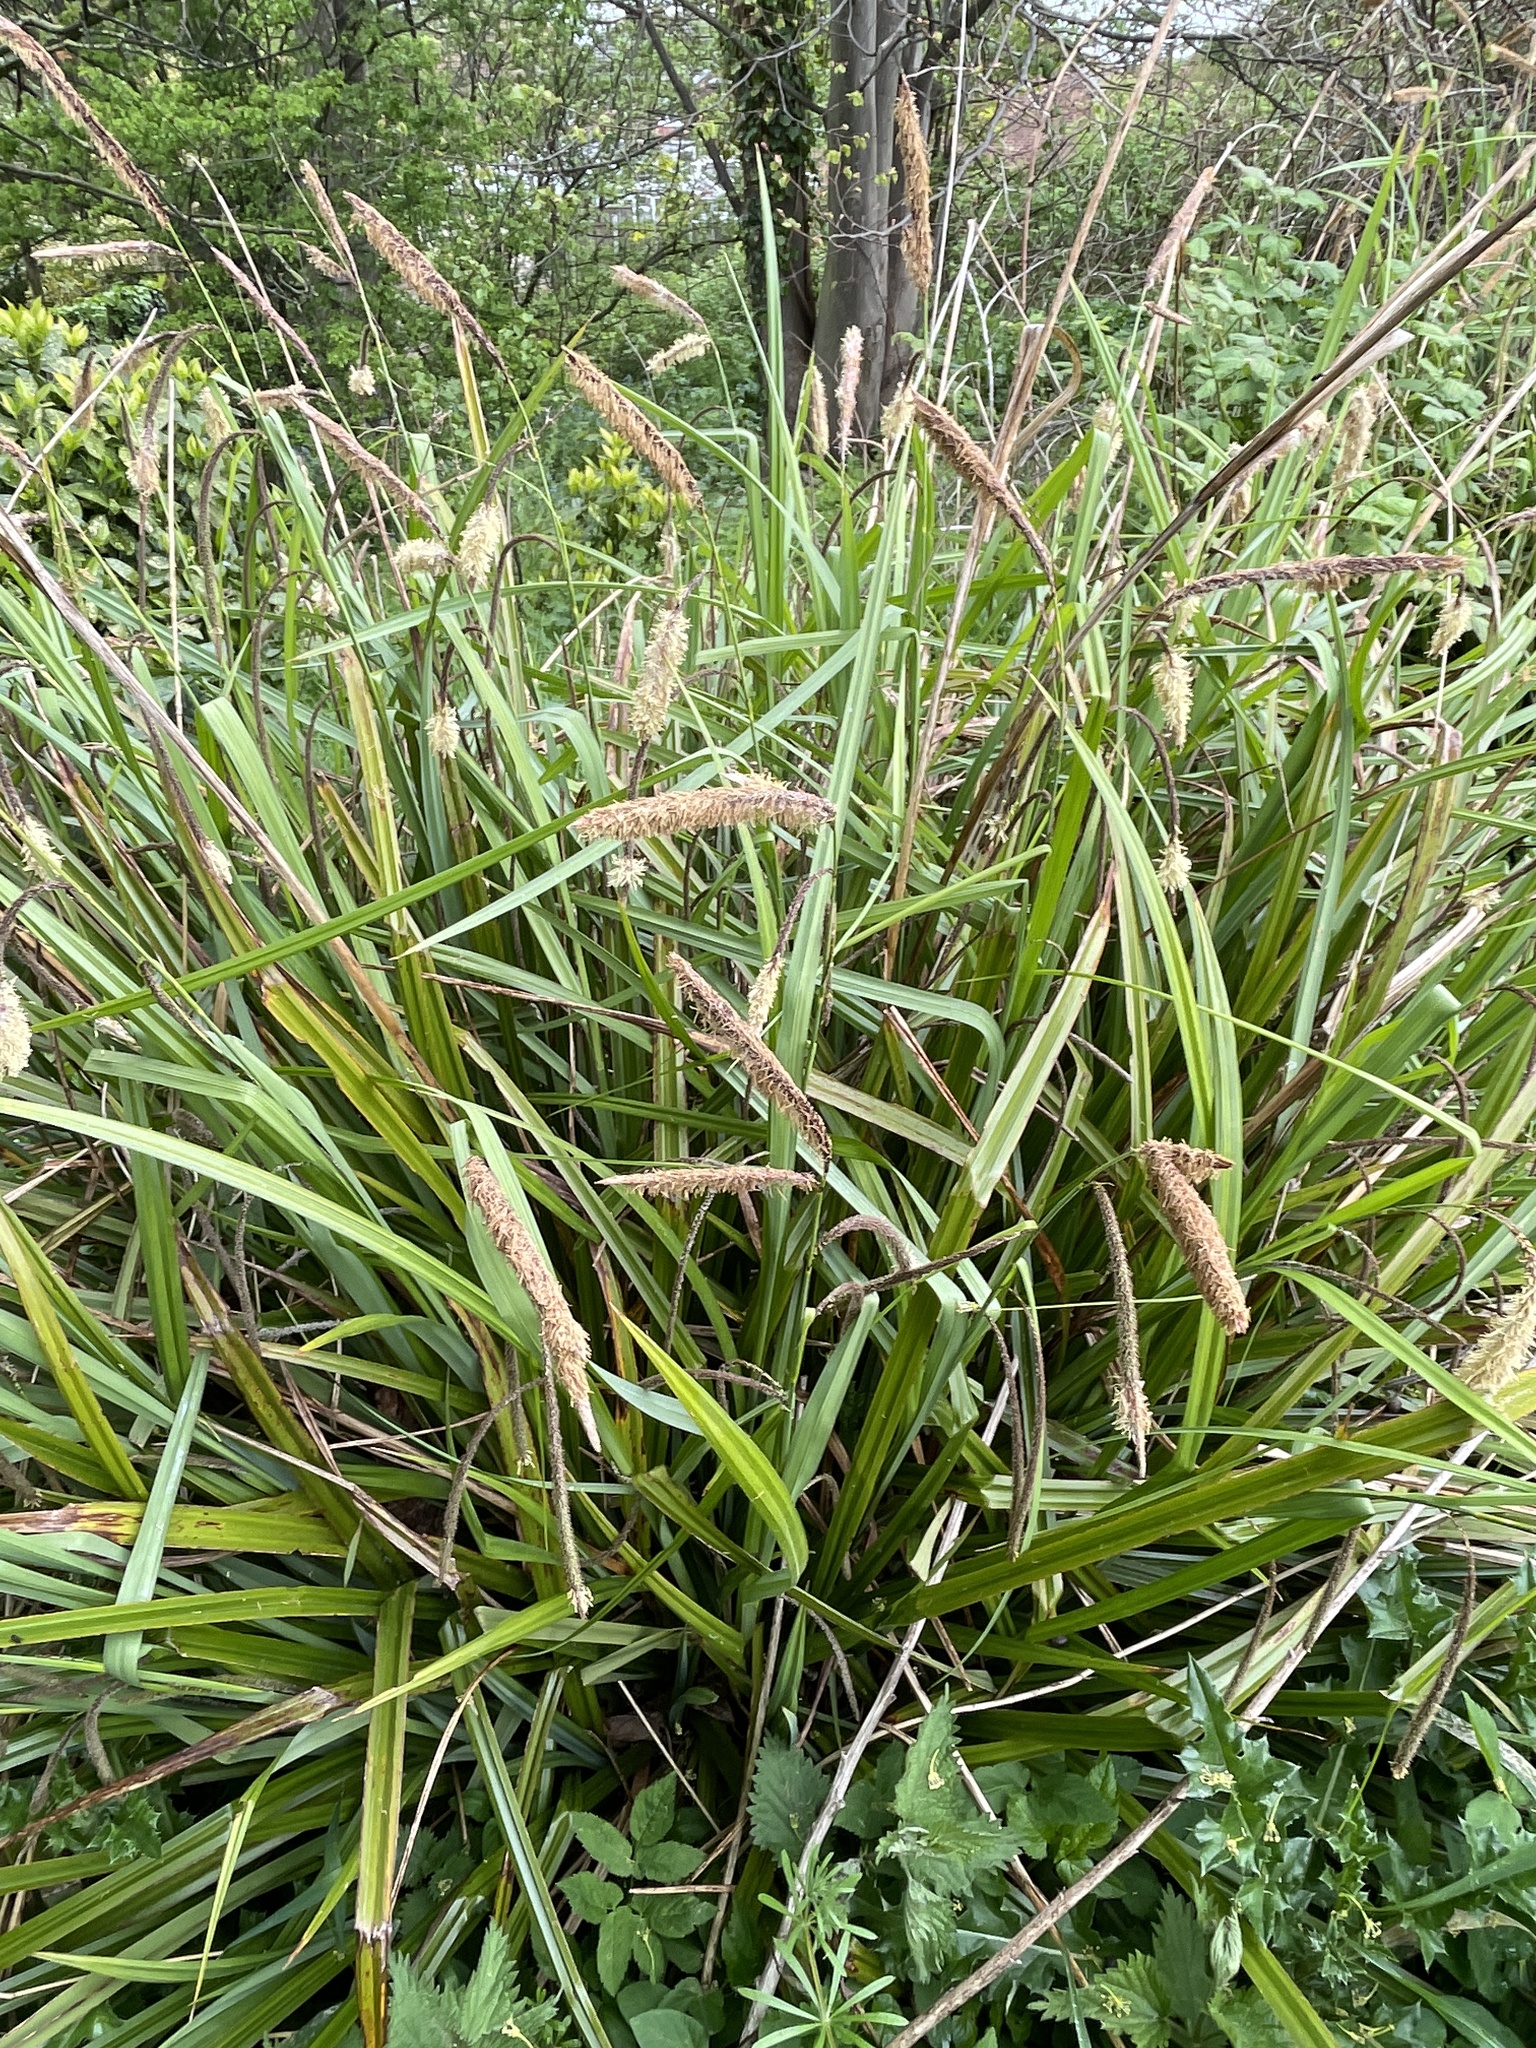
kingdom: Plantae
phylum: Tracheophyta
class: Liliopsida
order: Poales
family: Cyperaceae
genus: Carex
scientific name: Carex pendula
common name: Pendulous sedge
